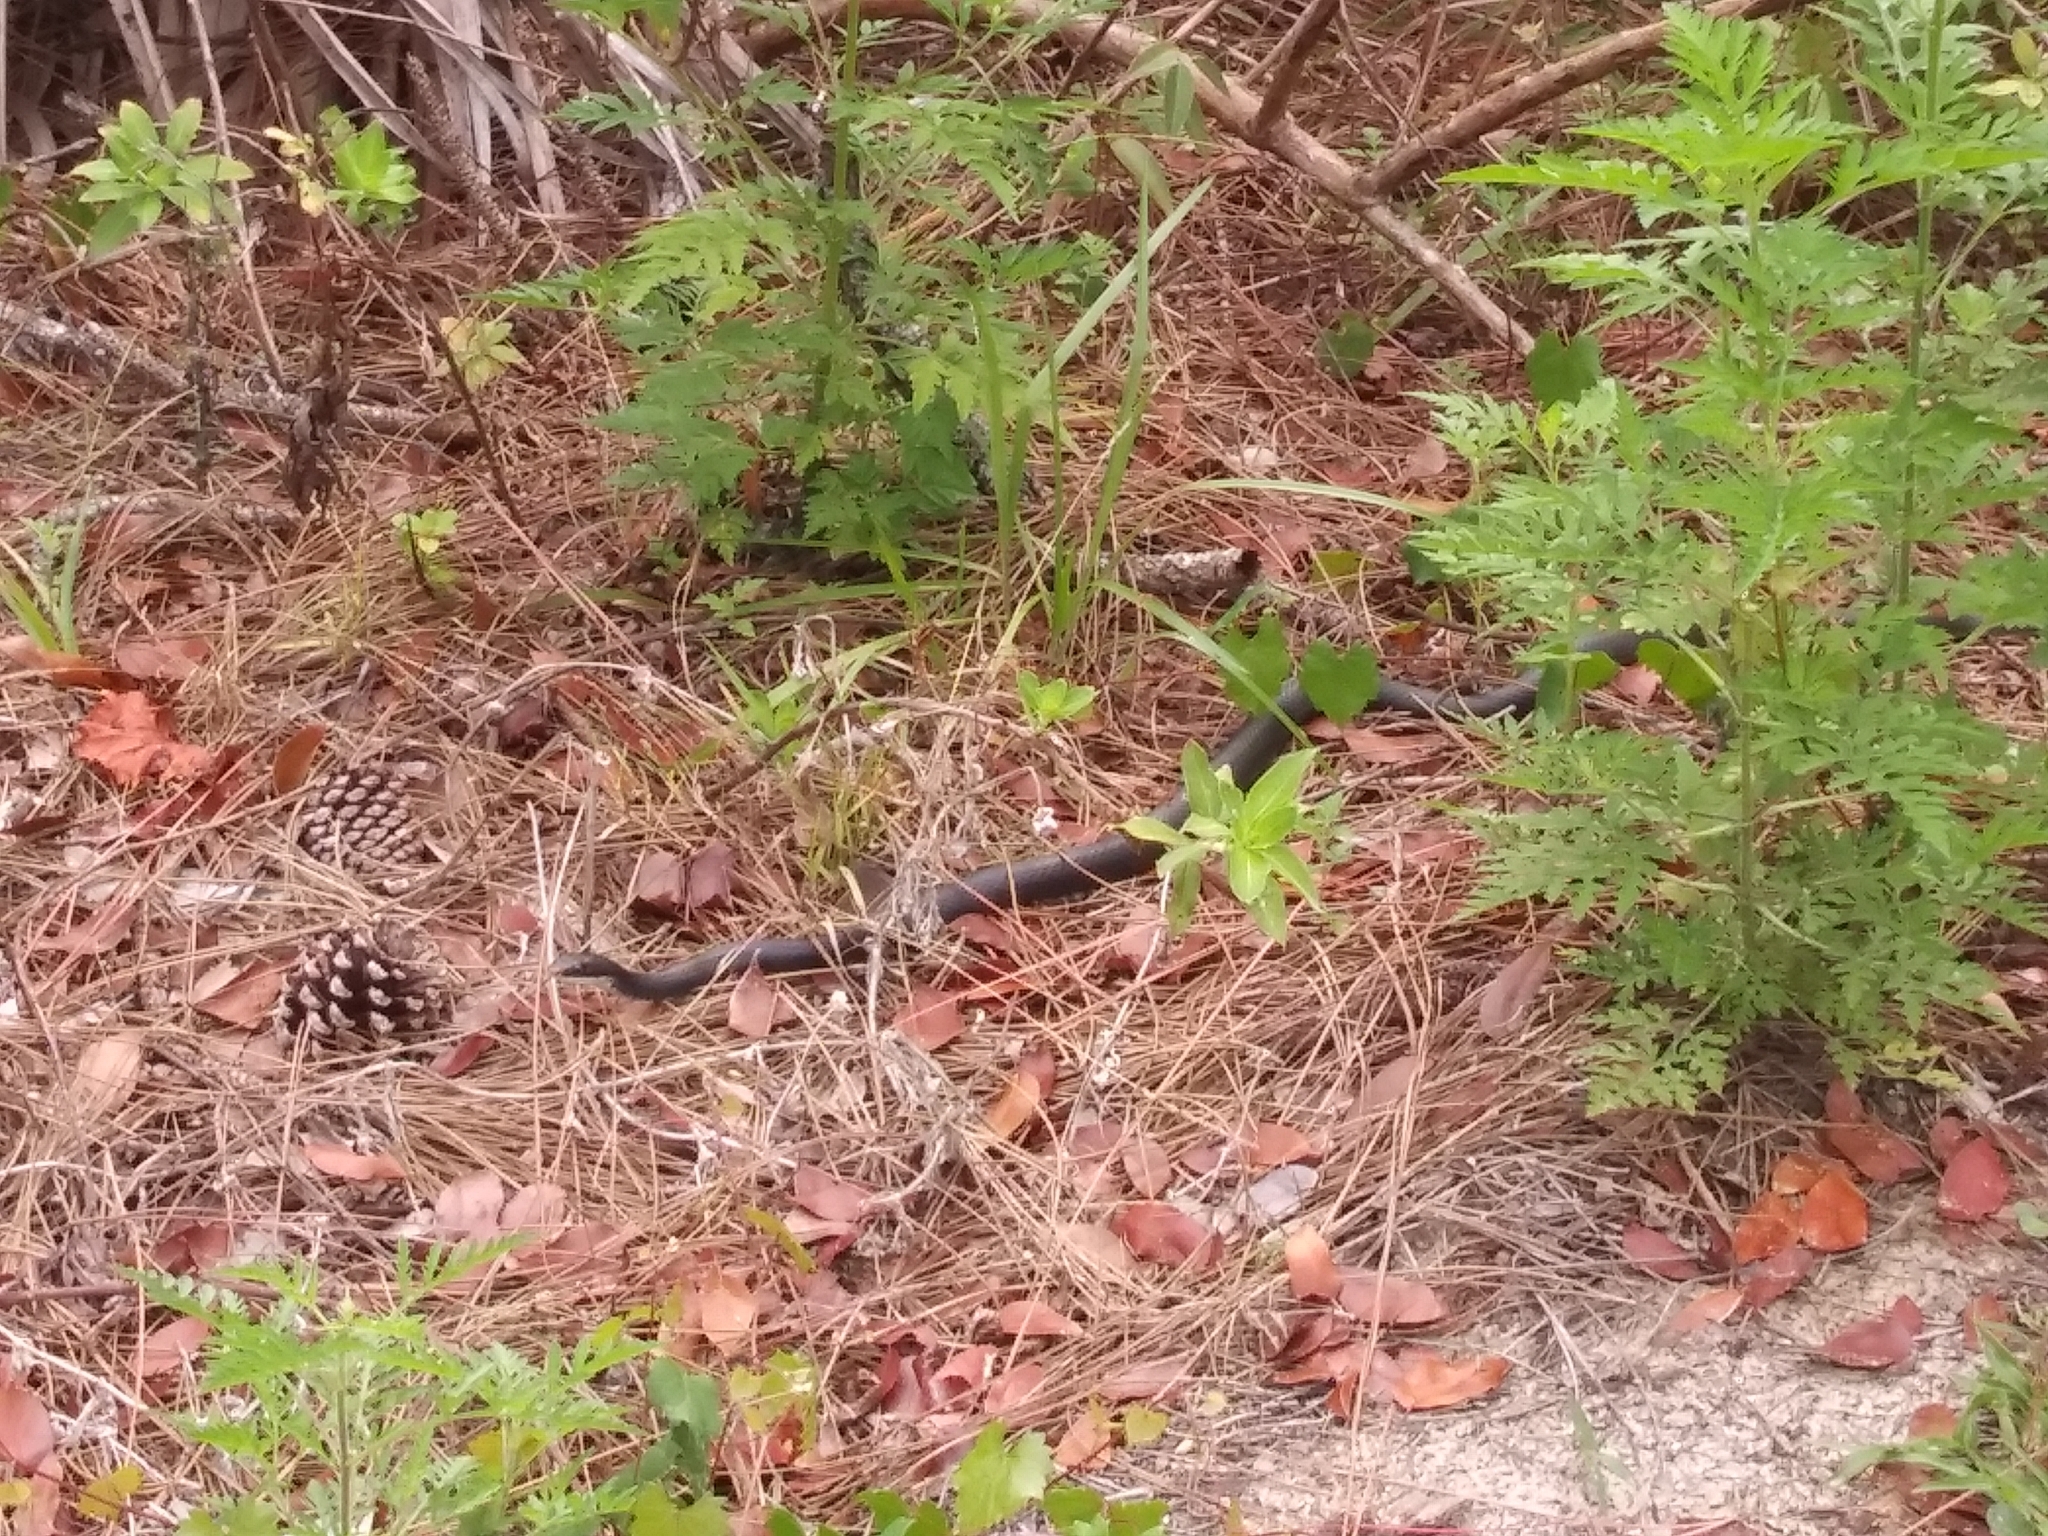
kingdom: Animalia
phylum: Chordata
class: Squamata
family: Colubridae
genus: Coluber
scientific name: Coluber constrictor
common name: Eastern racer
